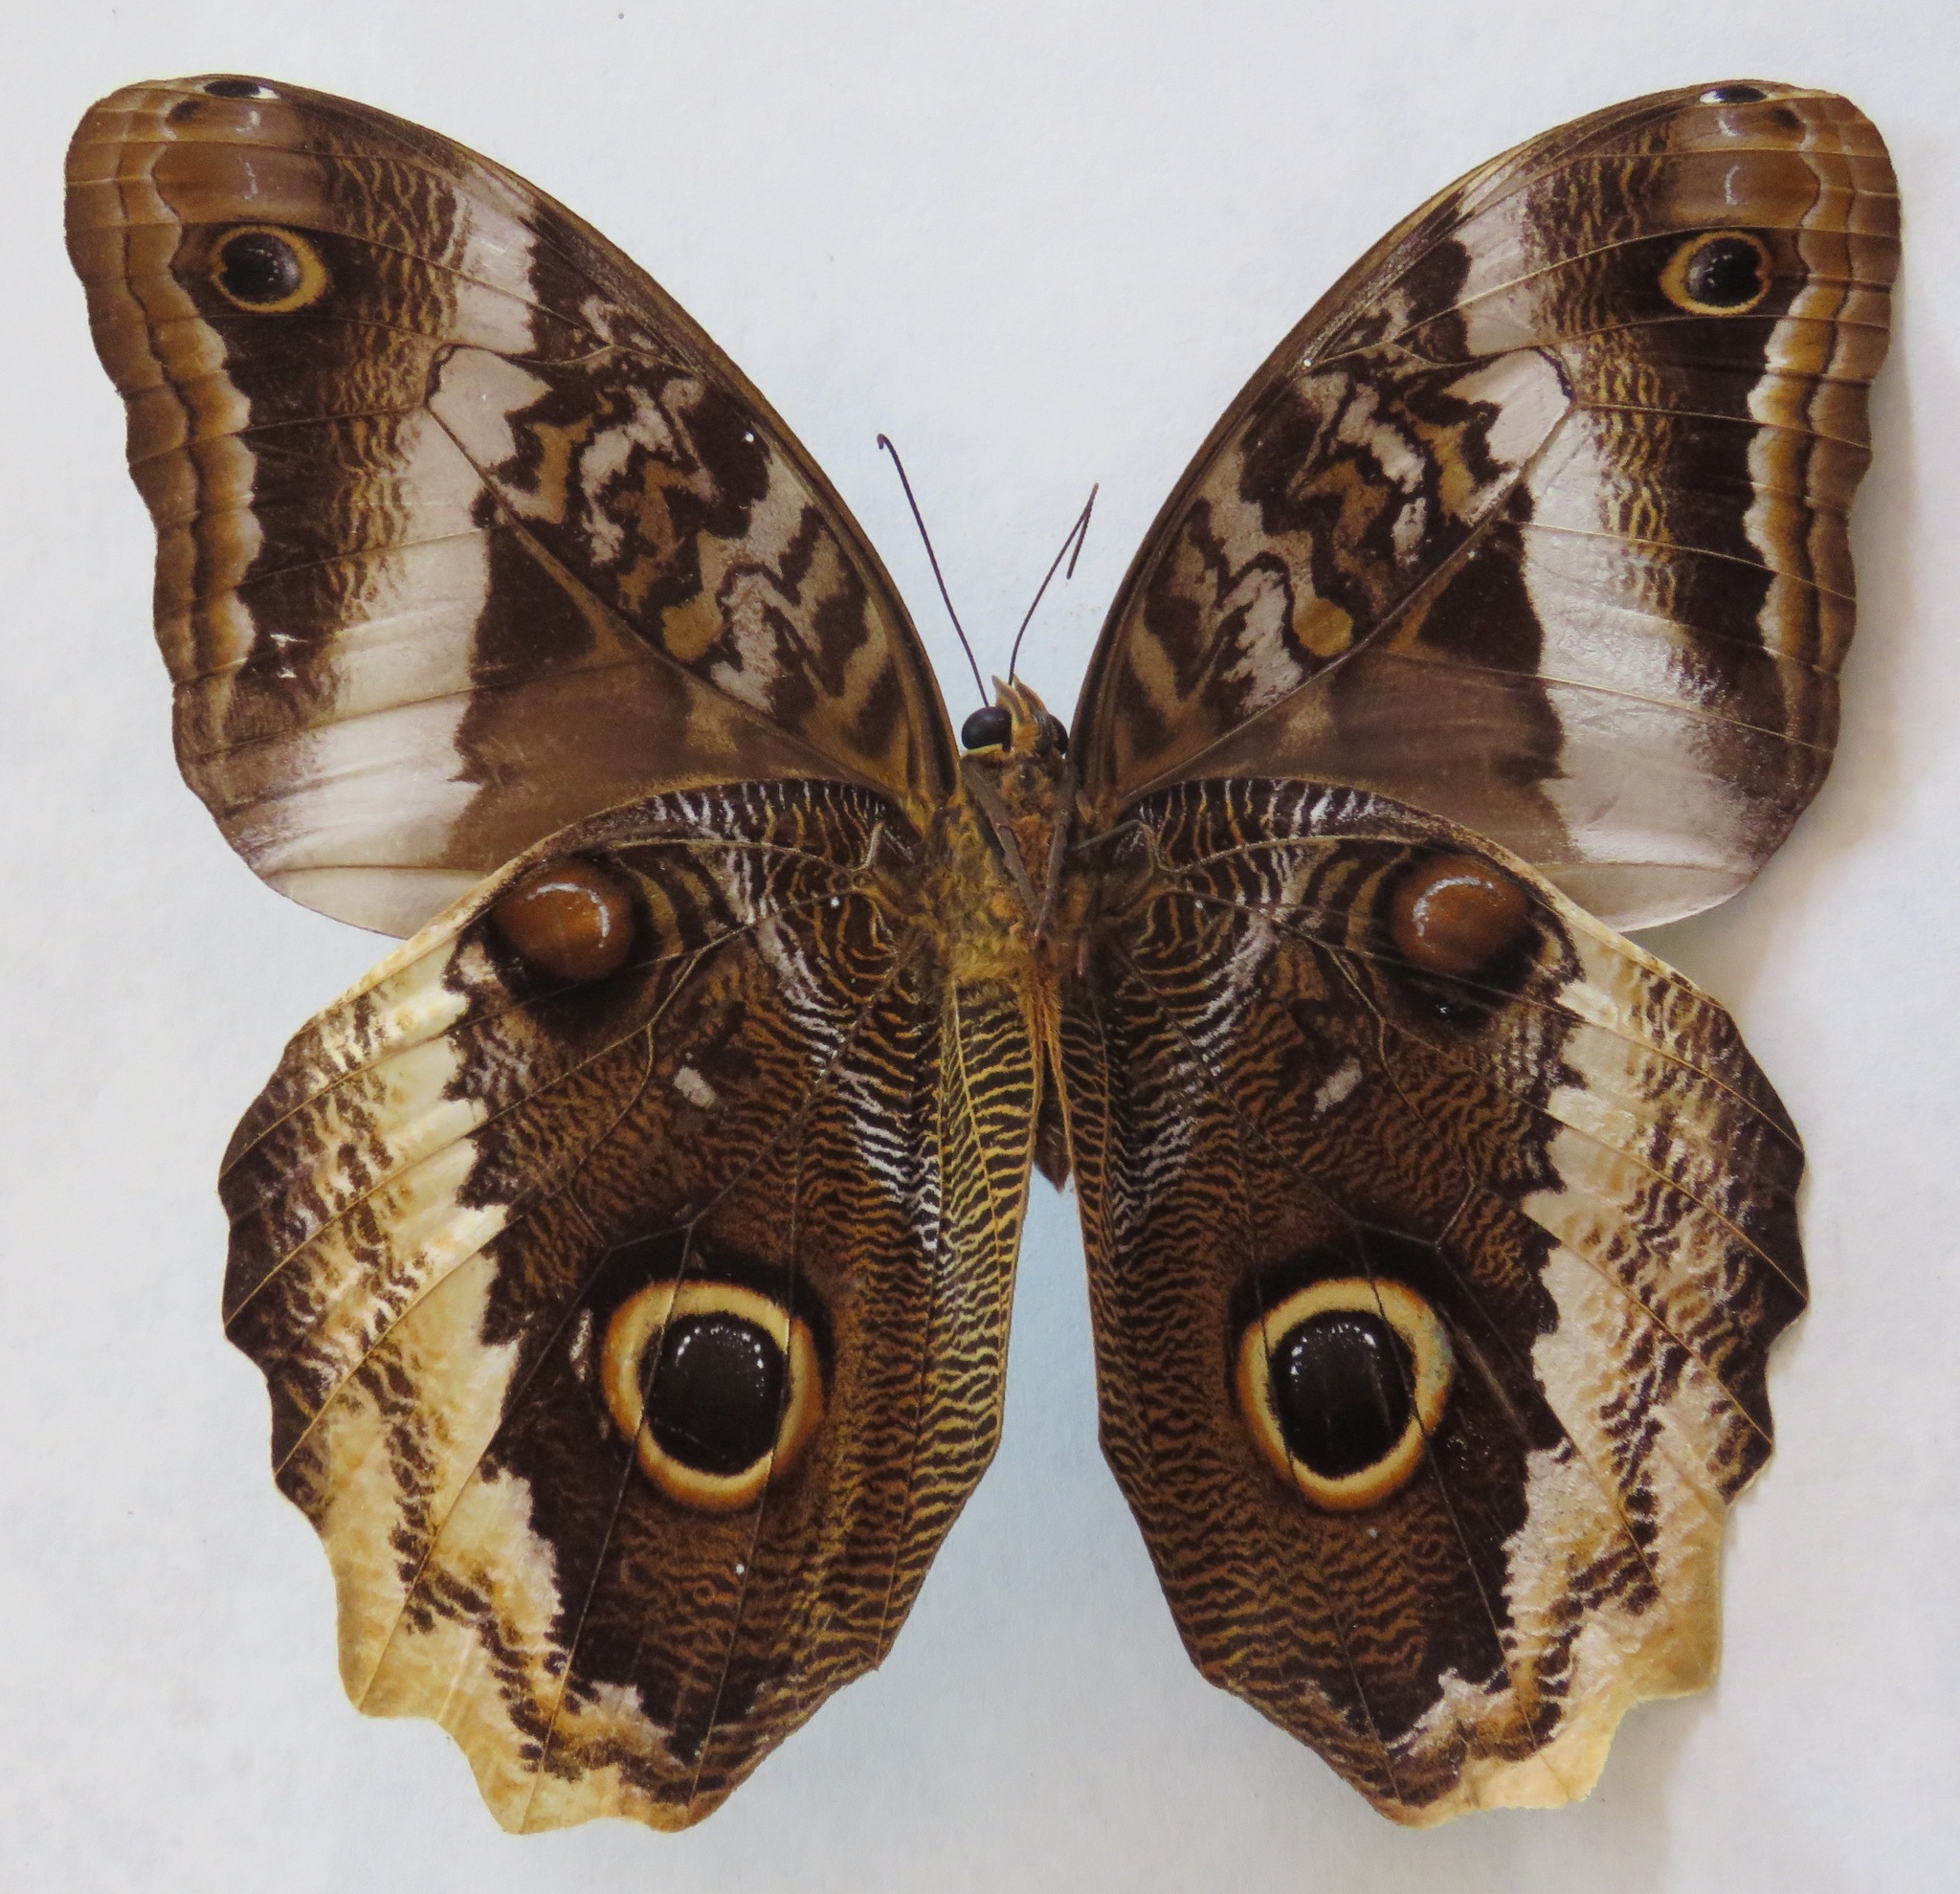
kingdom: Animalia
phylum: Arthropoda
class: Insecta
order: Lepidoptera
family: Nymphalidae
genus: Caligo
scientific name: Caligo atreus
